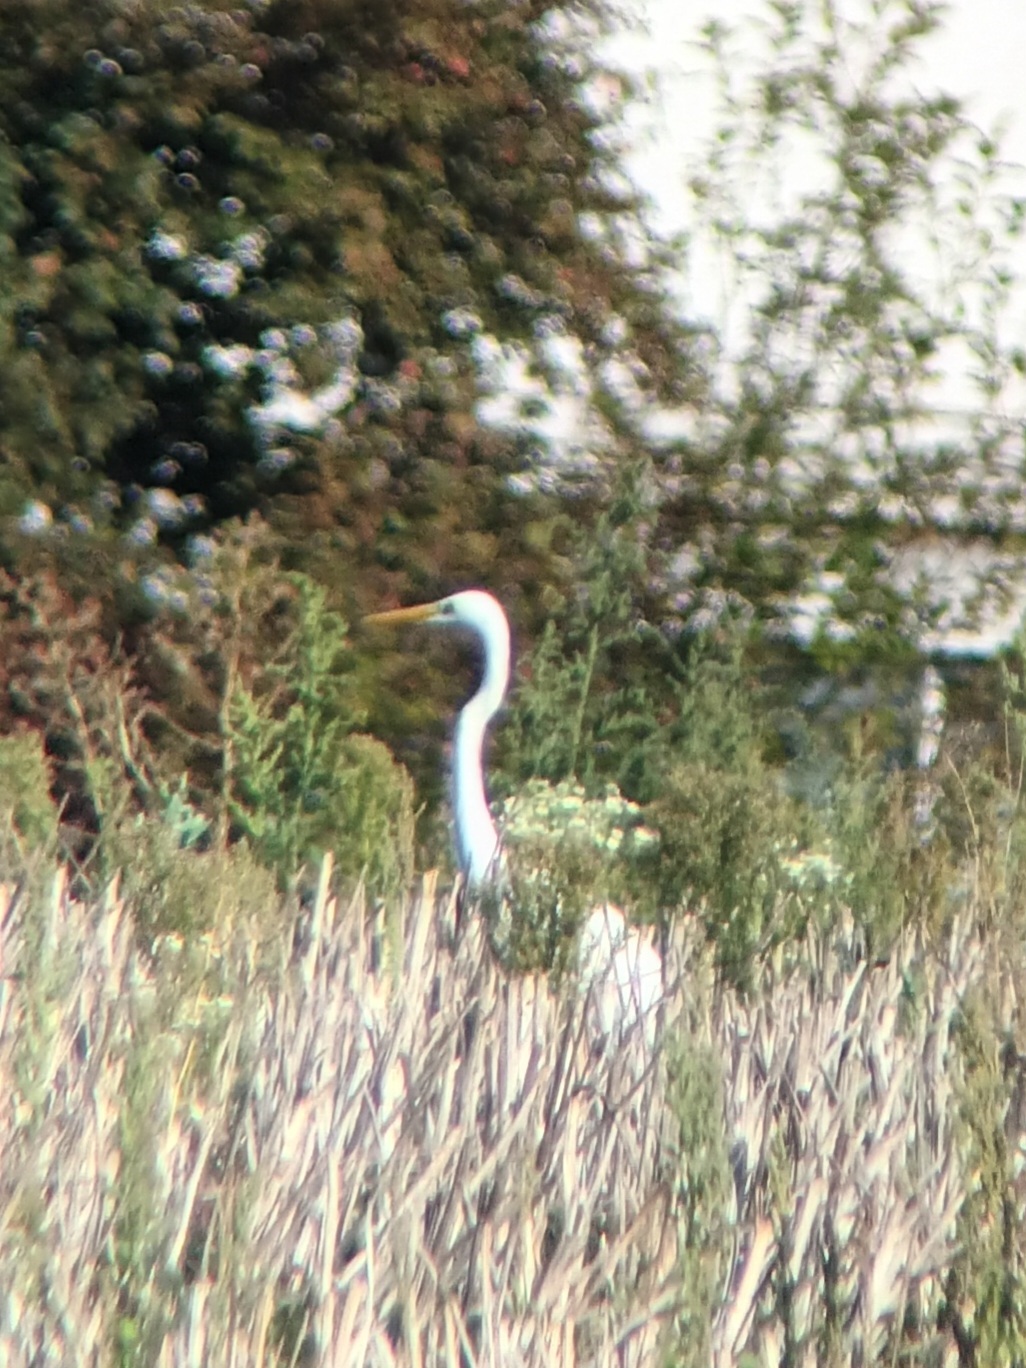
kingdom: Animalia
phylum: Chordata
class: Aves
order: Pelecaniformes
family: Ardeidae
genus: Ardea
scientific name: Ardea alba
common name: Great egret
